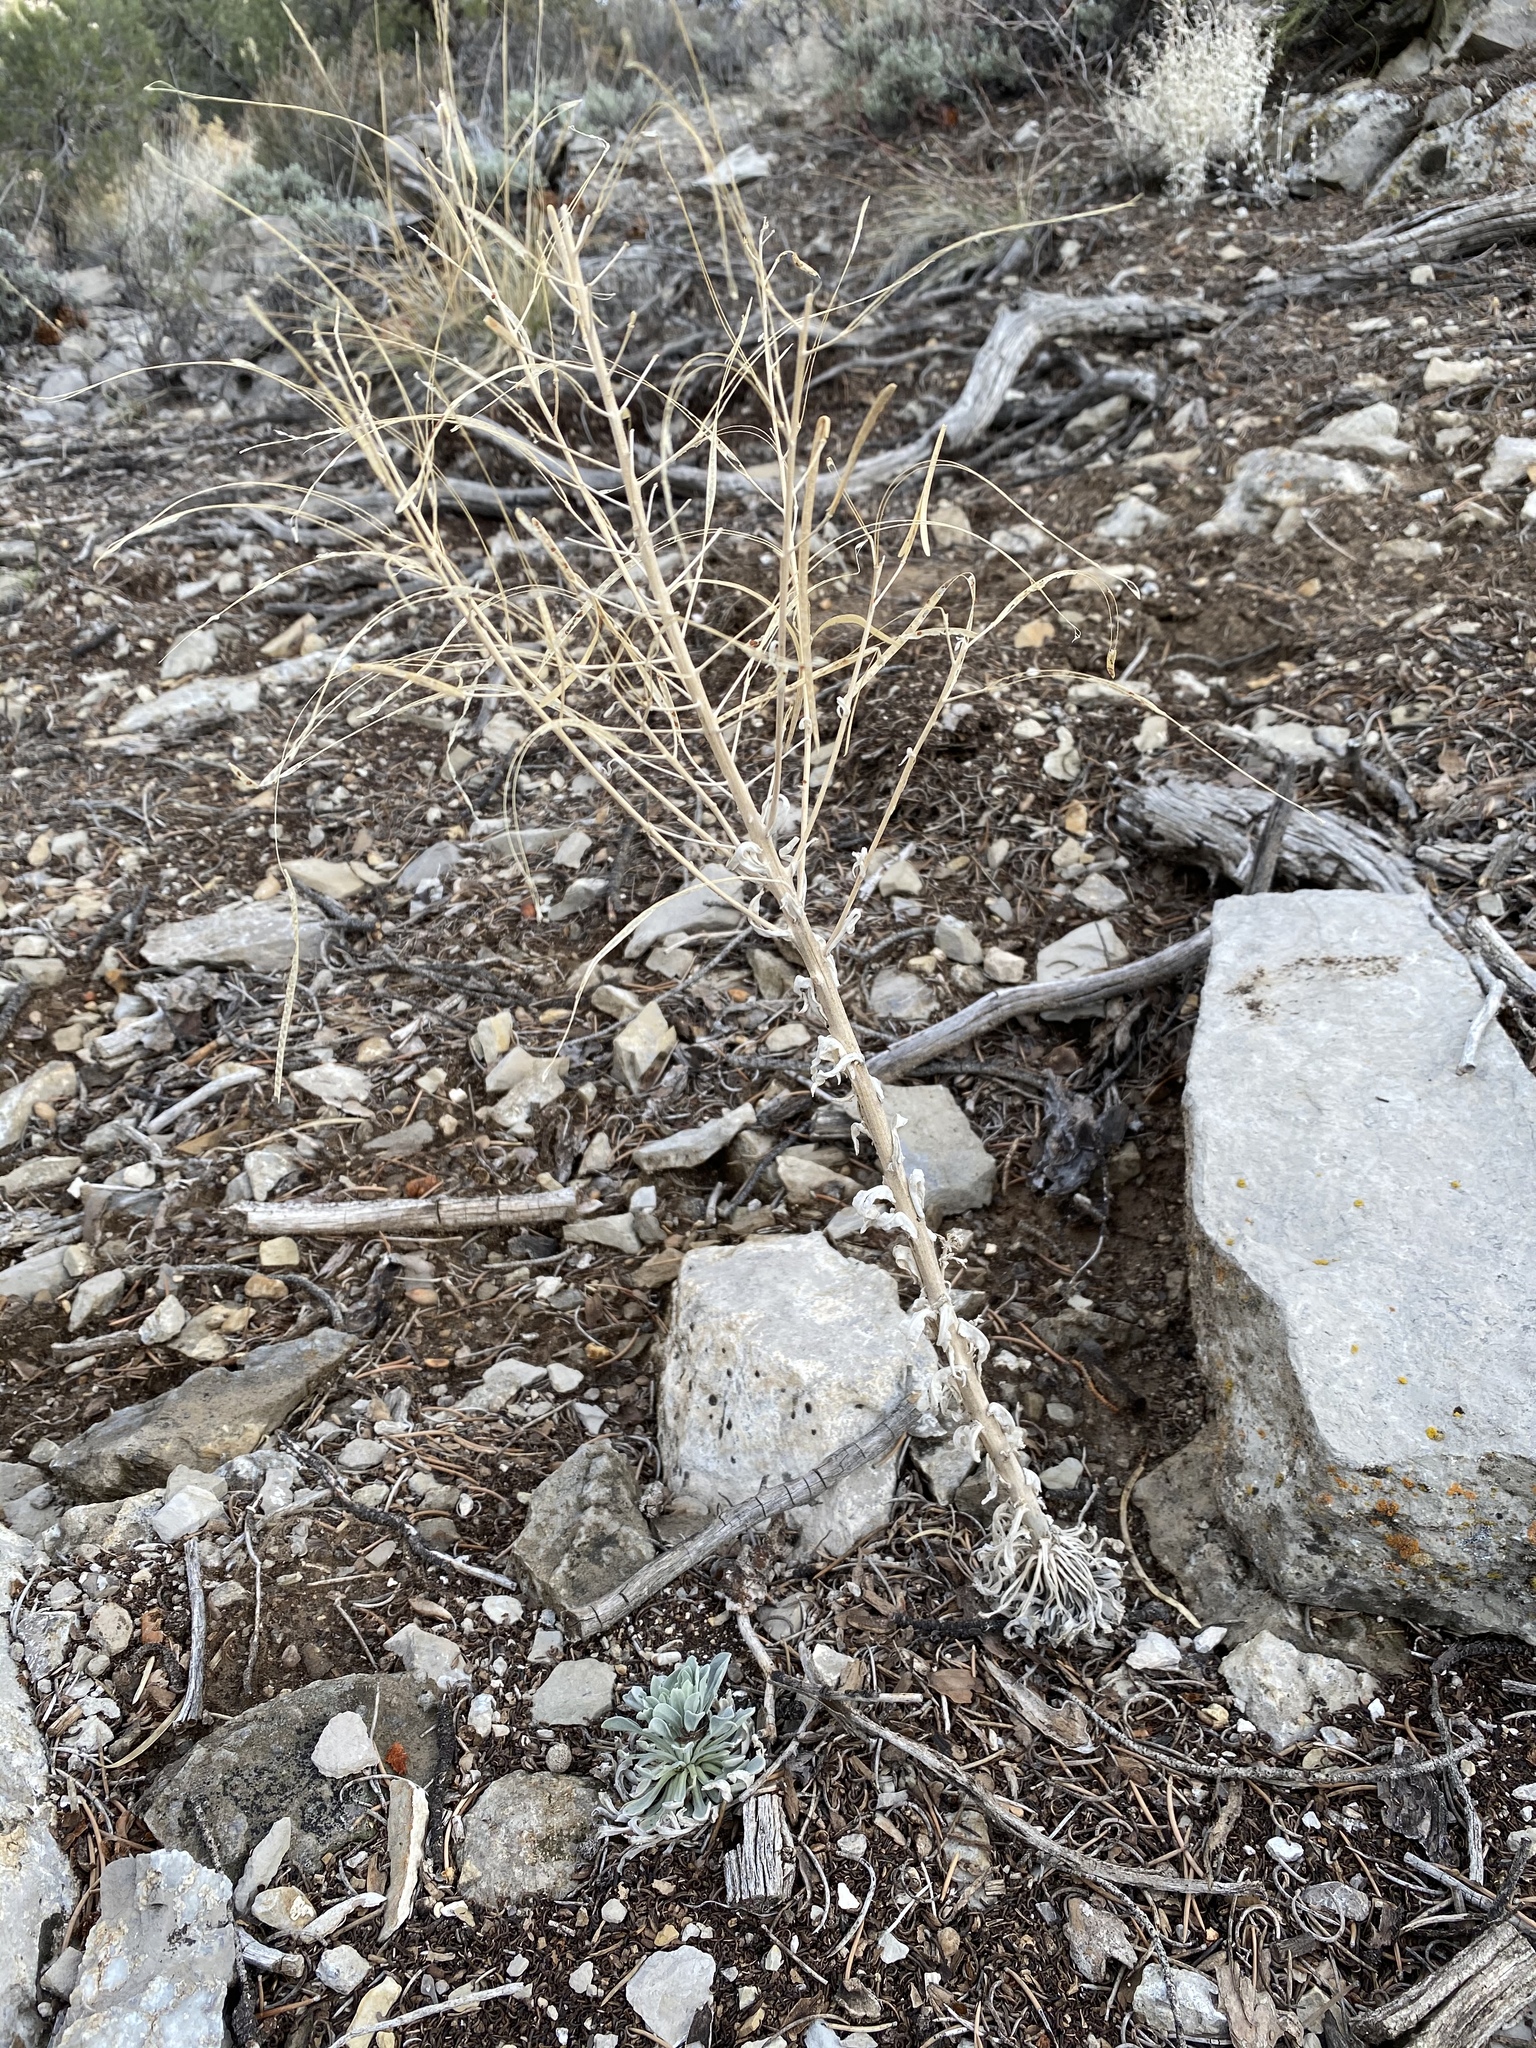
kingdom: Plantae
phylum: Tracheophyta
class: Magnoliopsida
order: Brassicales
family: Brassicaceae
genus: Boechera
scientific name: Boechera shockleyi
